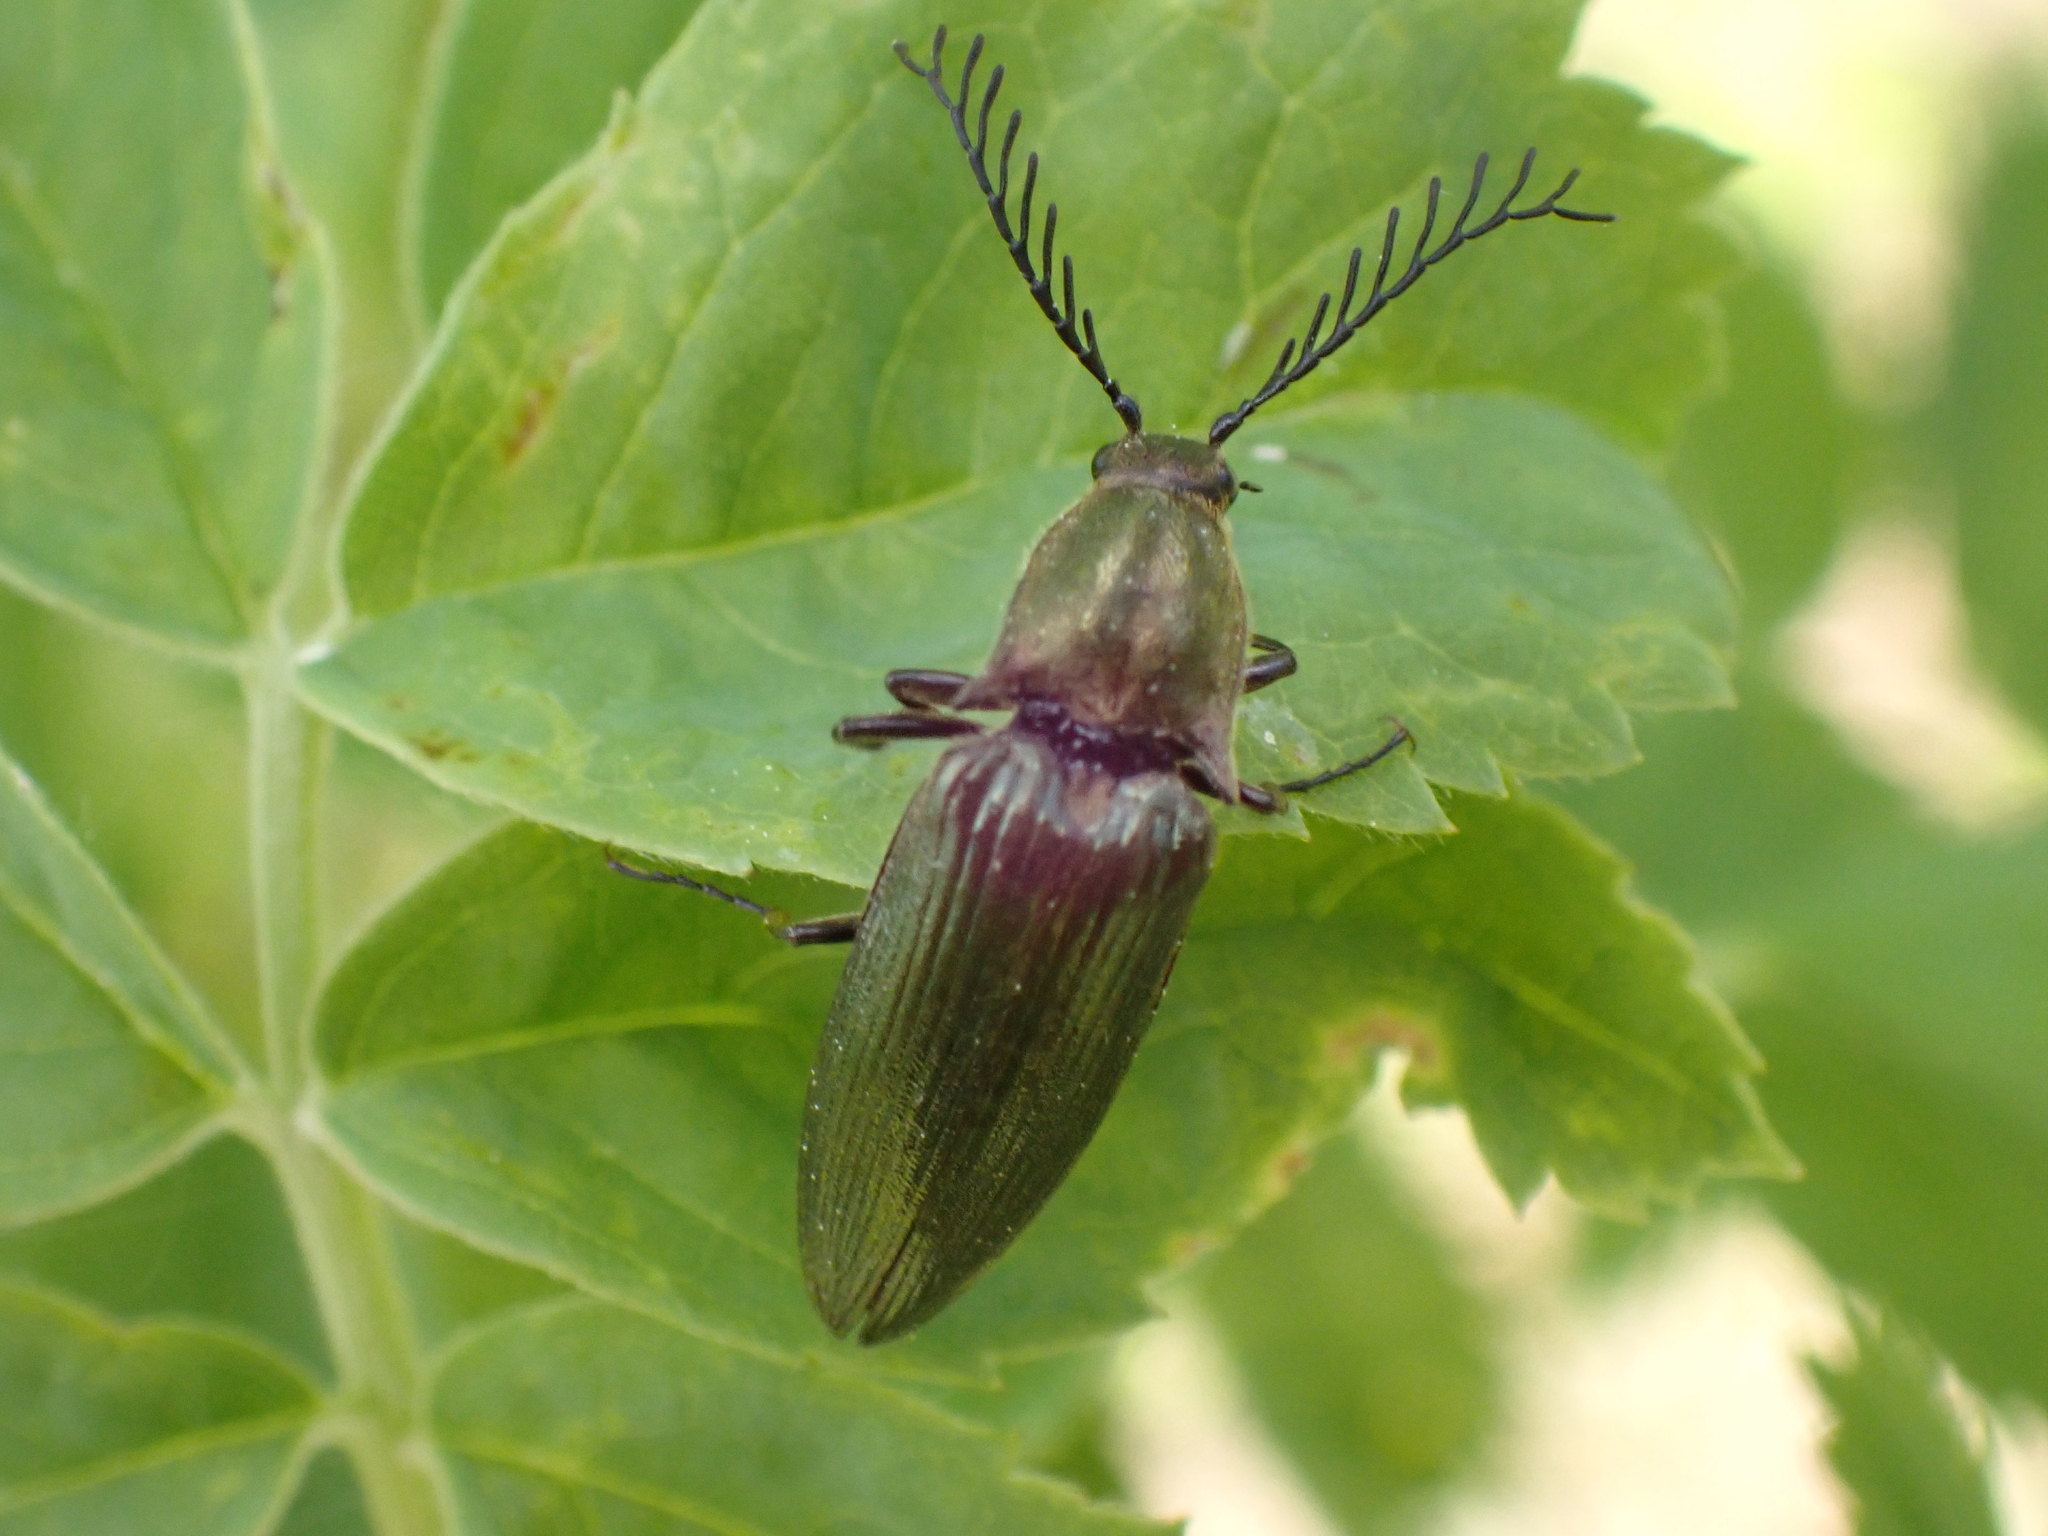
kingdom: Animalia
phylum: Arthropoda
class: Insecta
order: Coleoptera
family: Elateridae
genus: Ctenicera
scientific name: Ctenicera pectinicornis
